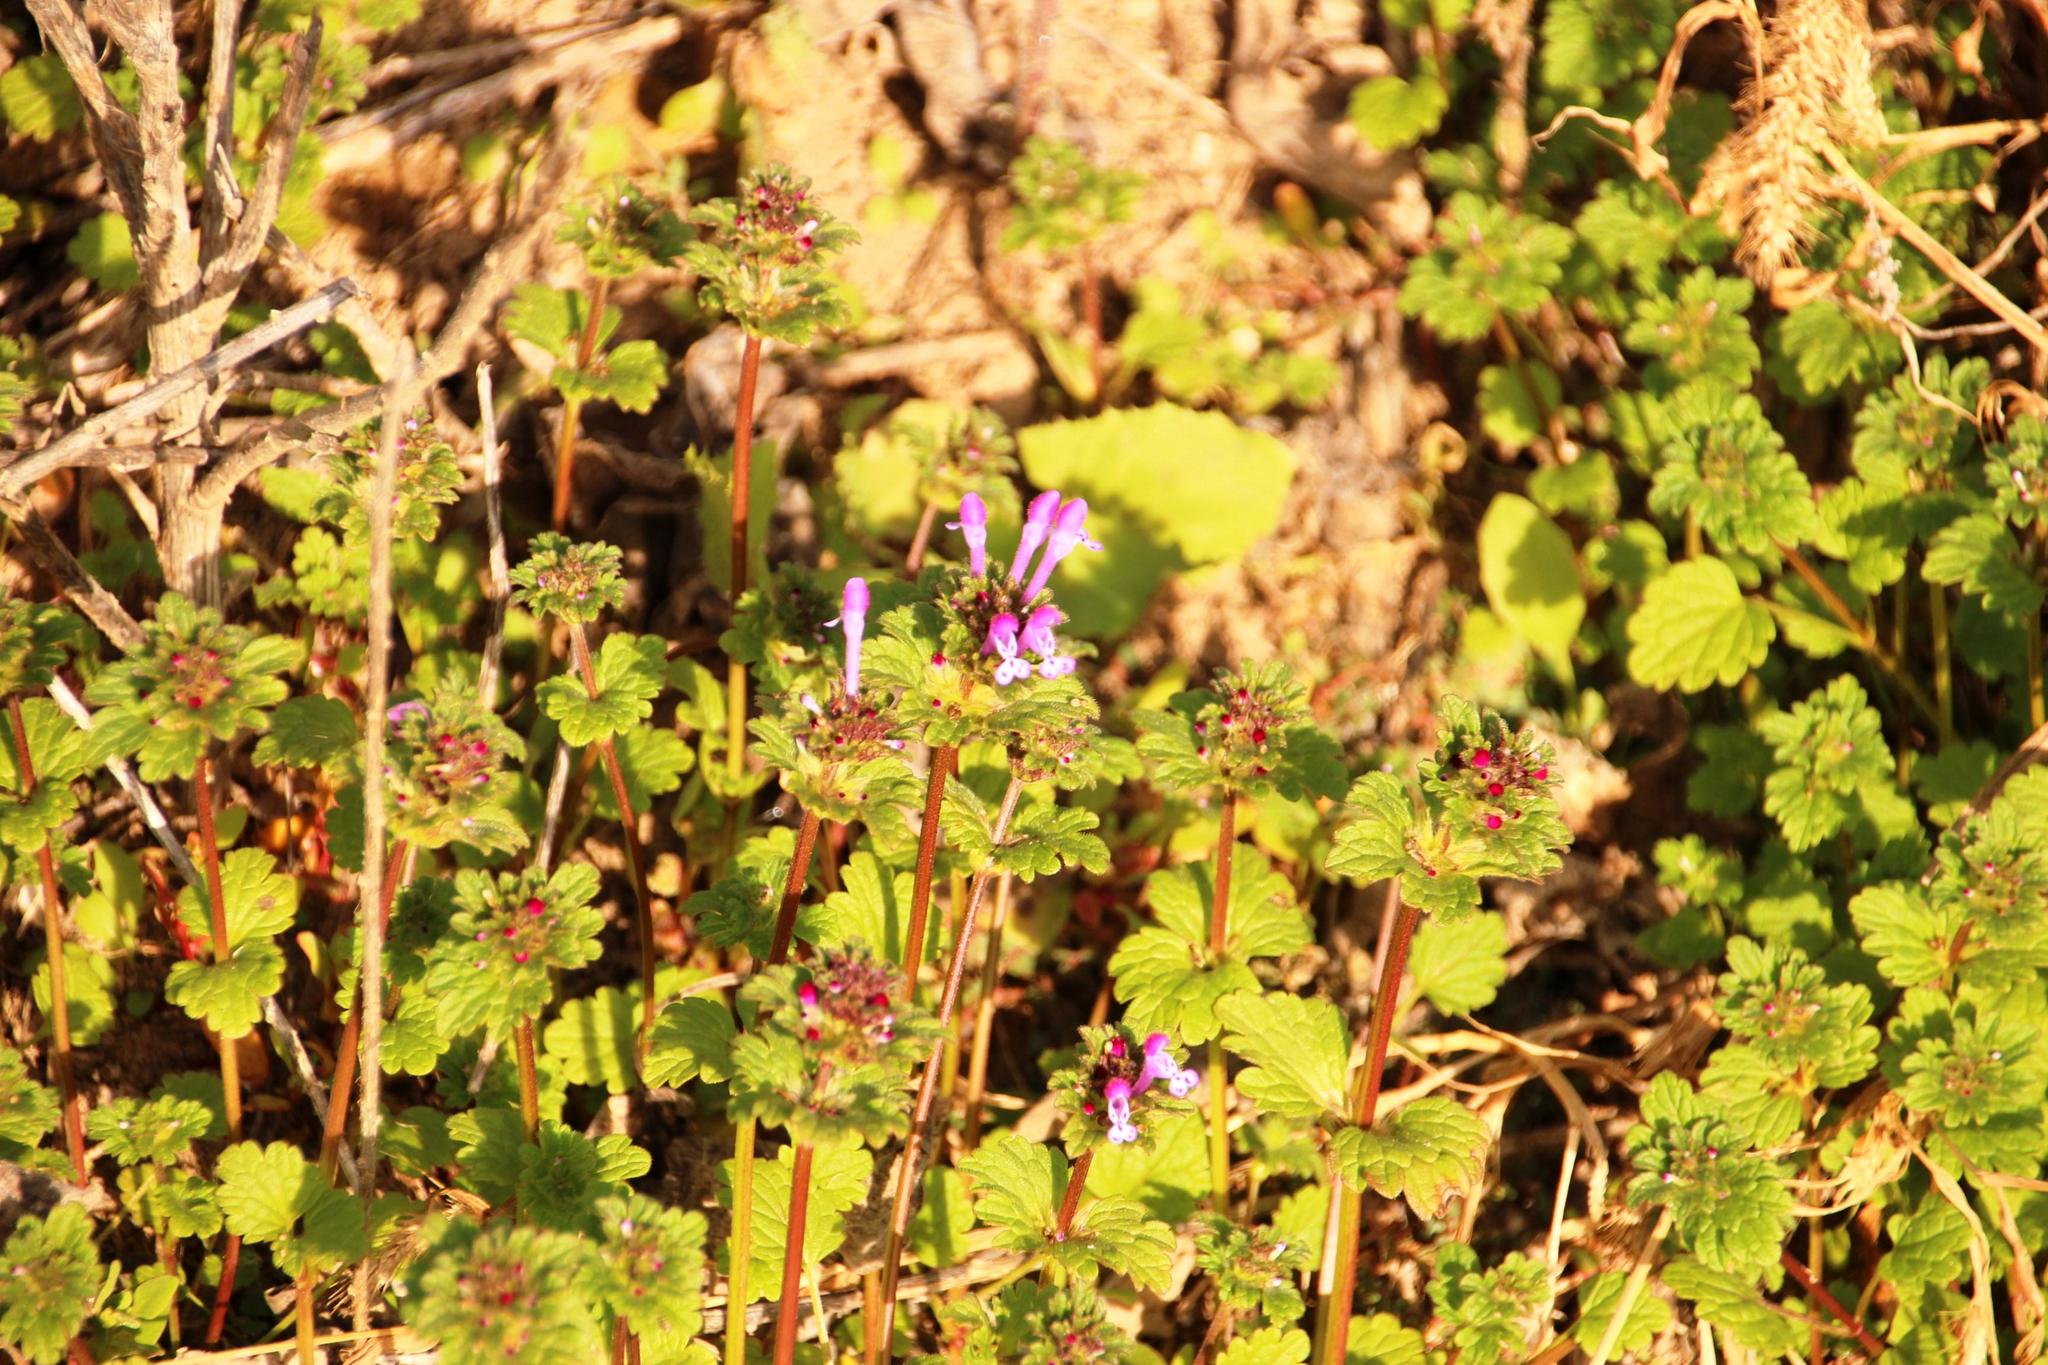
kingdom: Plantae
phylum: Tracheophyta
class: Magnoliopsida
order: Lamiales
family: Lamiaceae
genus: Lamium
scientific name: Lamium amplexicaule
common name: Henbit dead-nettle
